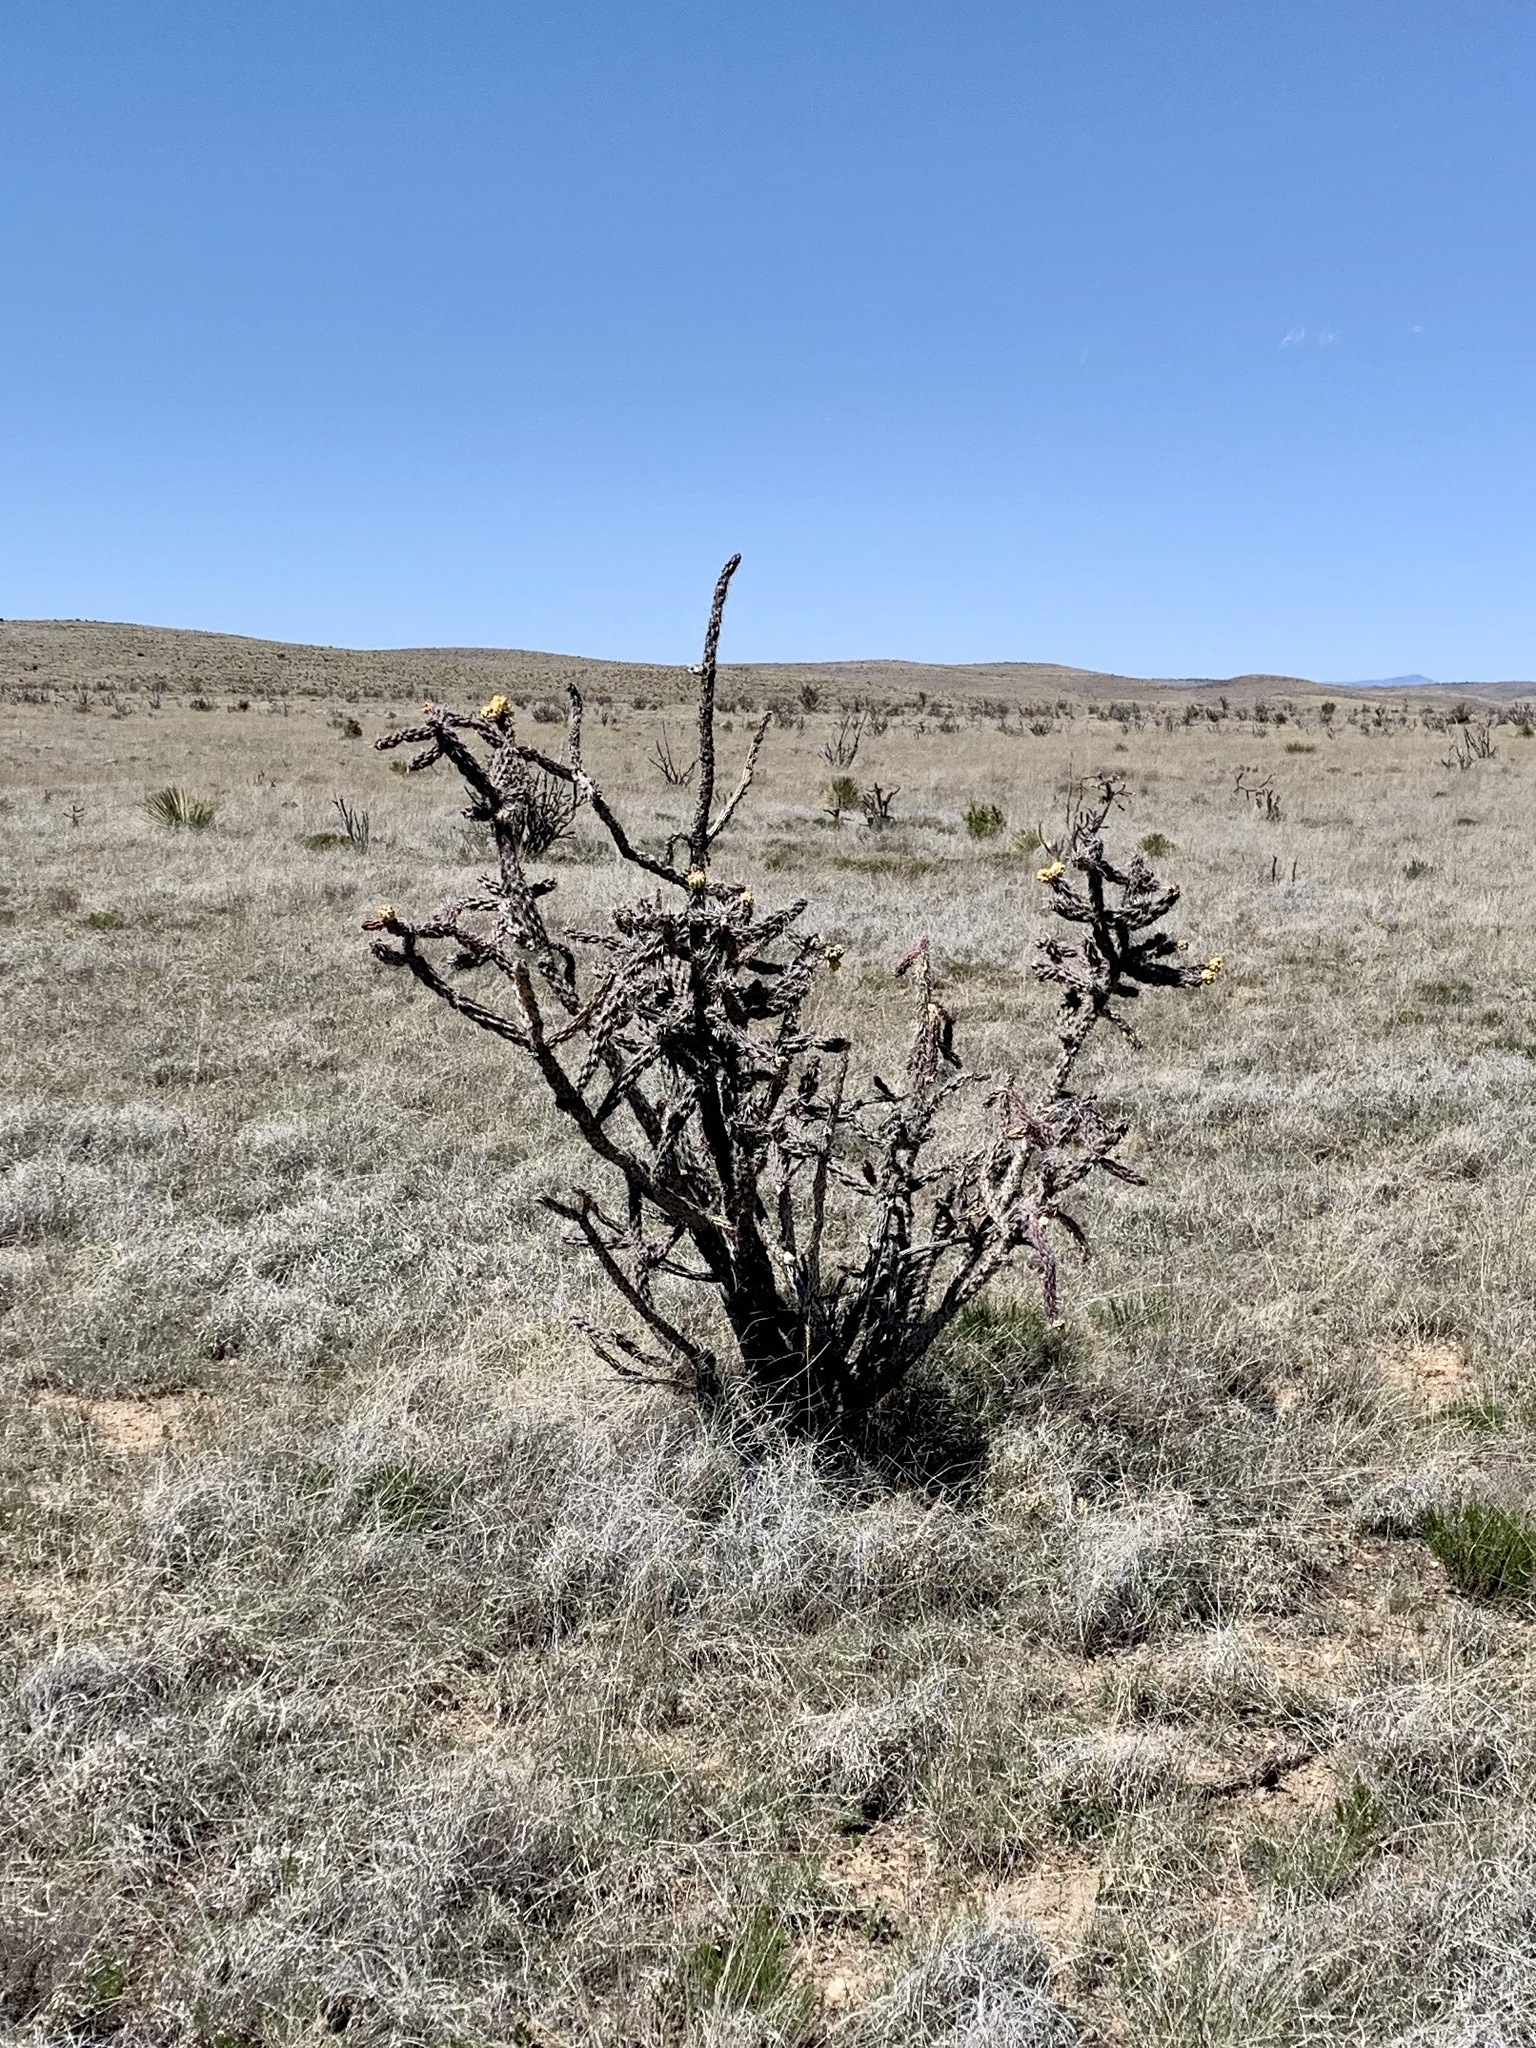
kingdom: Plantae
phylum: Tracheophyta
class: Magnoliopsida
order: Caryophyllales
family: Cactaceae
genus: Cylindropuntia
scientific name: Cylindropuntia imbricata
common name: Candelabrum cactus
